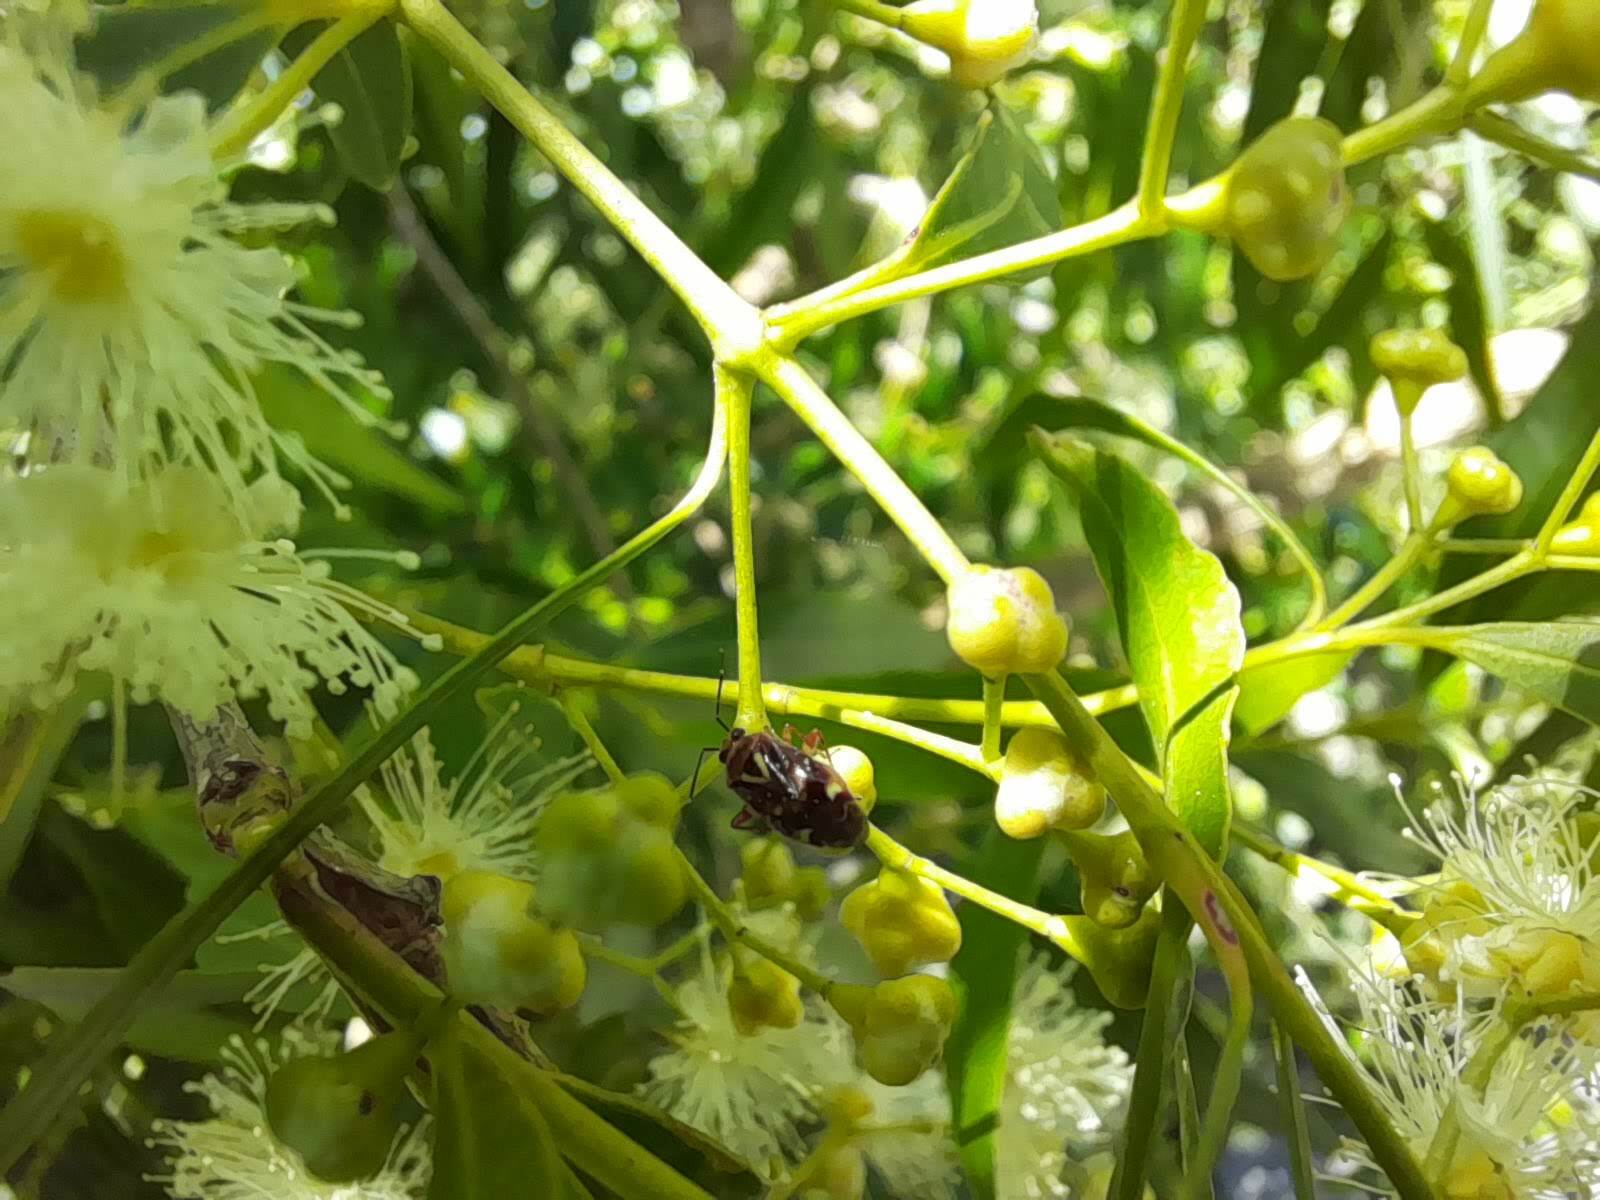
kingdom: Animalia
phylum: Arthropoda
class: Insecta
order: Hemiptera
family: Miridae
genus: Horciasoides
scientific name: Horciasoides nobilellus
